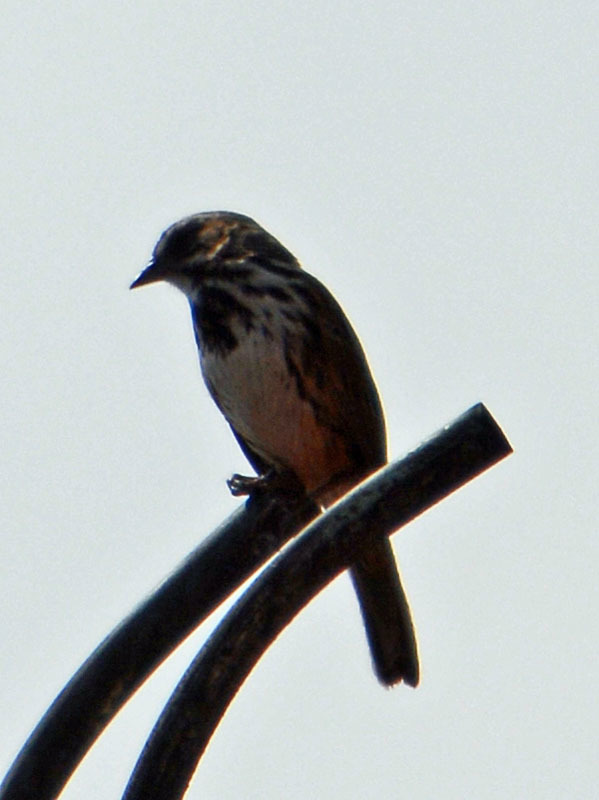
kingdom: Animalia
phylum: Chordata
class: Aves
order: Passeriformes
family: Passerellidae
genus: Melospiza
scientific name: Melospiza melodia
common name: Song sparrow
